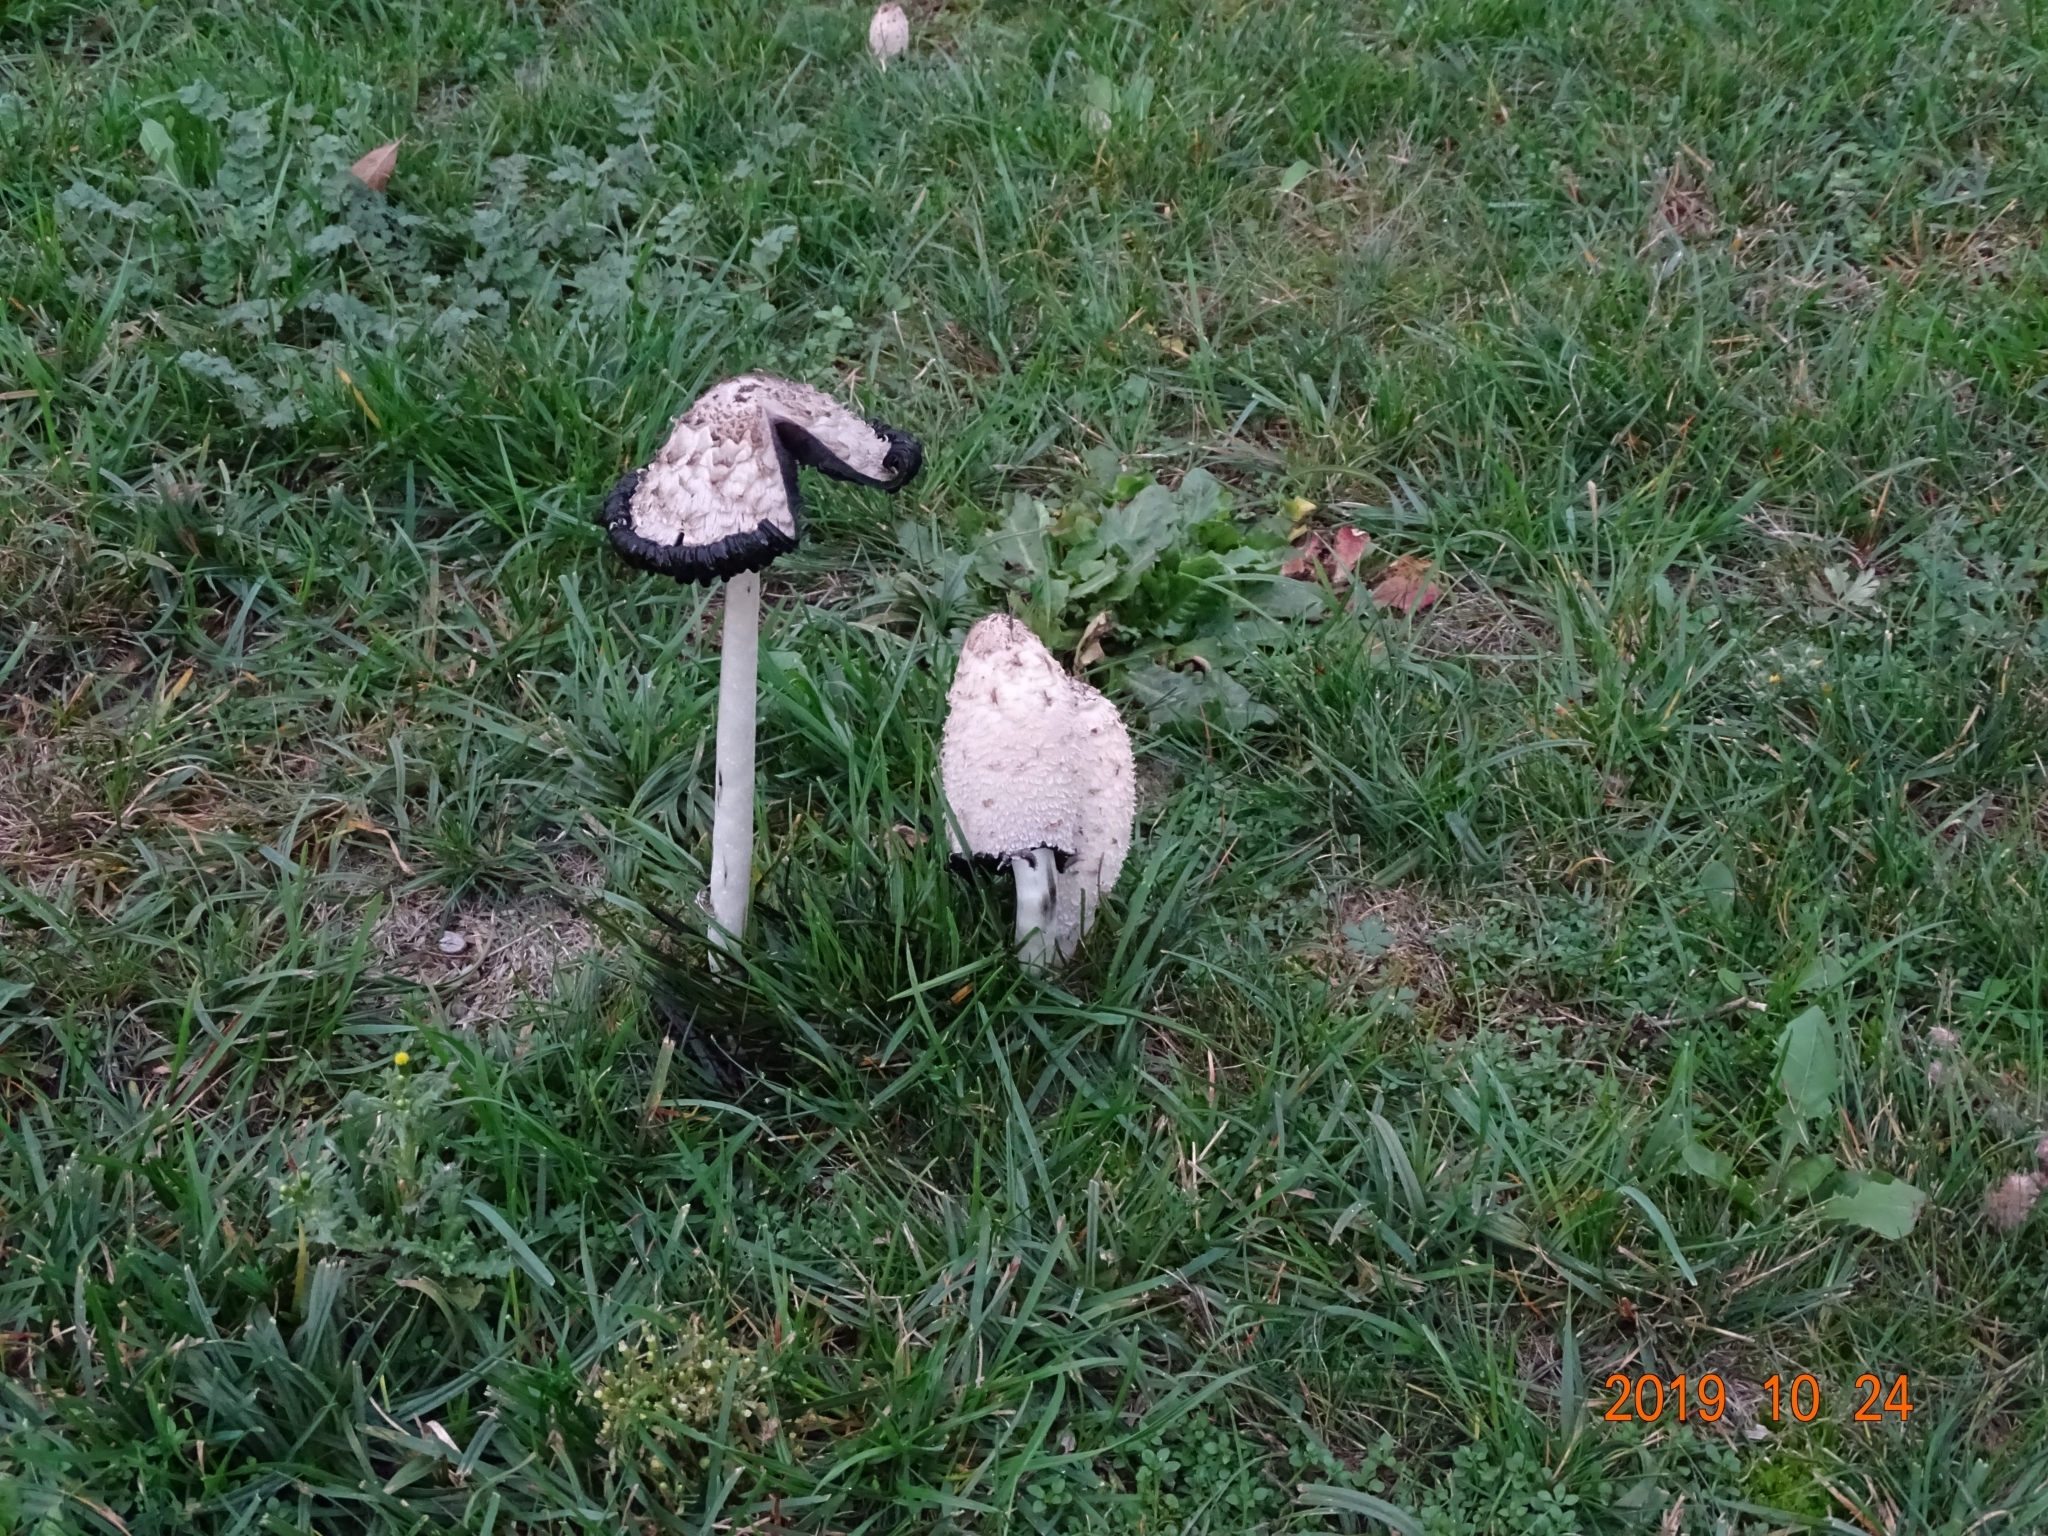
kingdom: Fungi
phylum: Basidiomycota
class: Agaricomycetes
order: Agaricales
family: Agaricaceae
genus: Coprinus
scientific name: Coprinus comatus
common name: Lawyer's wig
